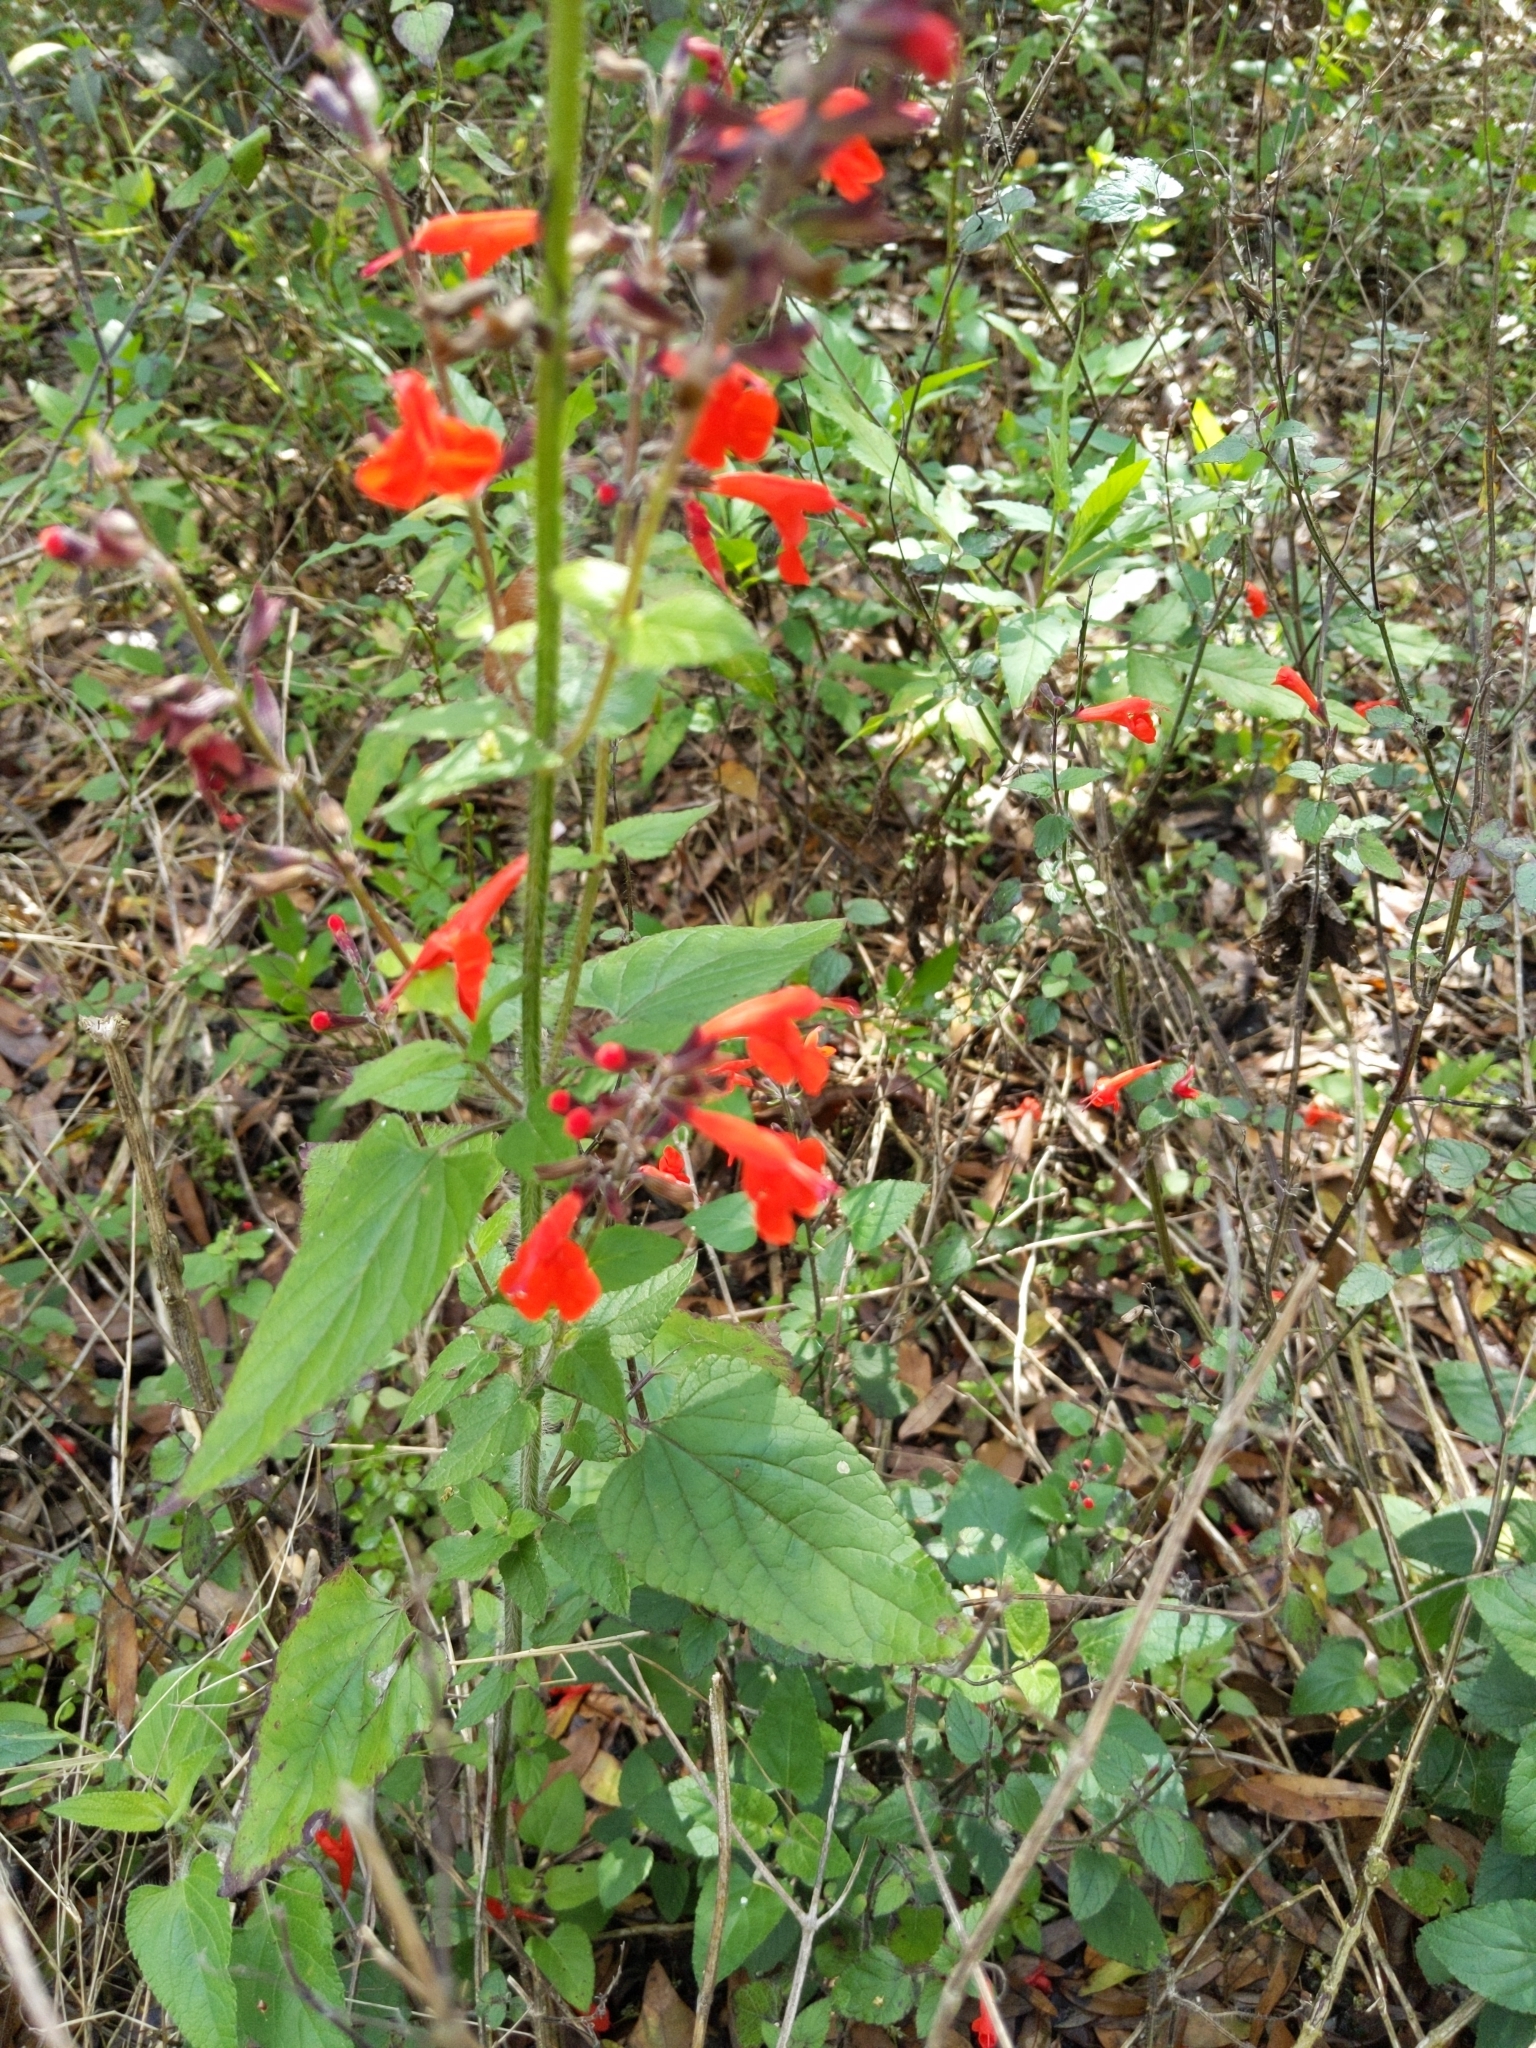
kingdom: Plantae
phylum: Tracheophyta
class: Magnoliopsida
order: Lamiales
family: Lamiaceae
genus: Salvia
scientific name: Salvia coccinea
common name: Blood sage
